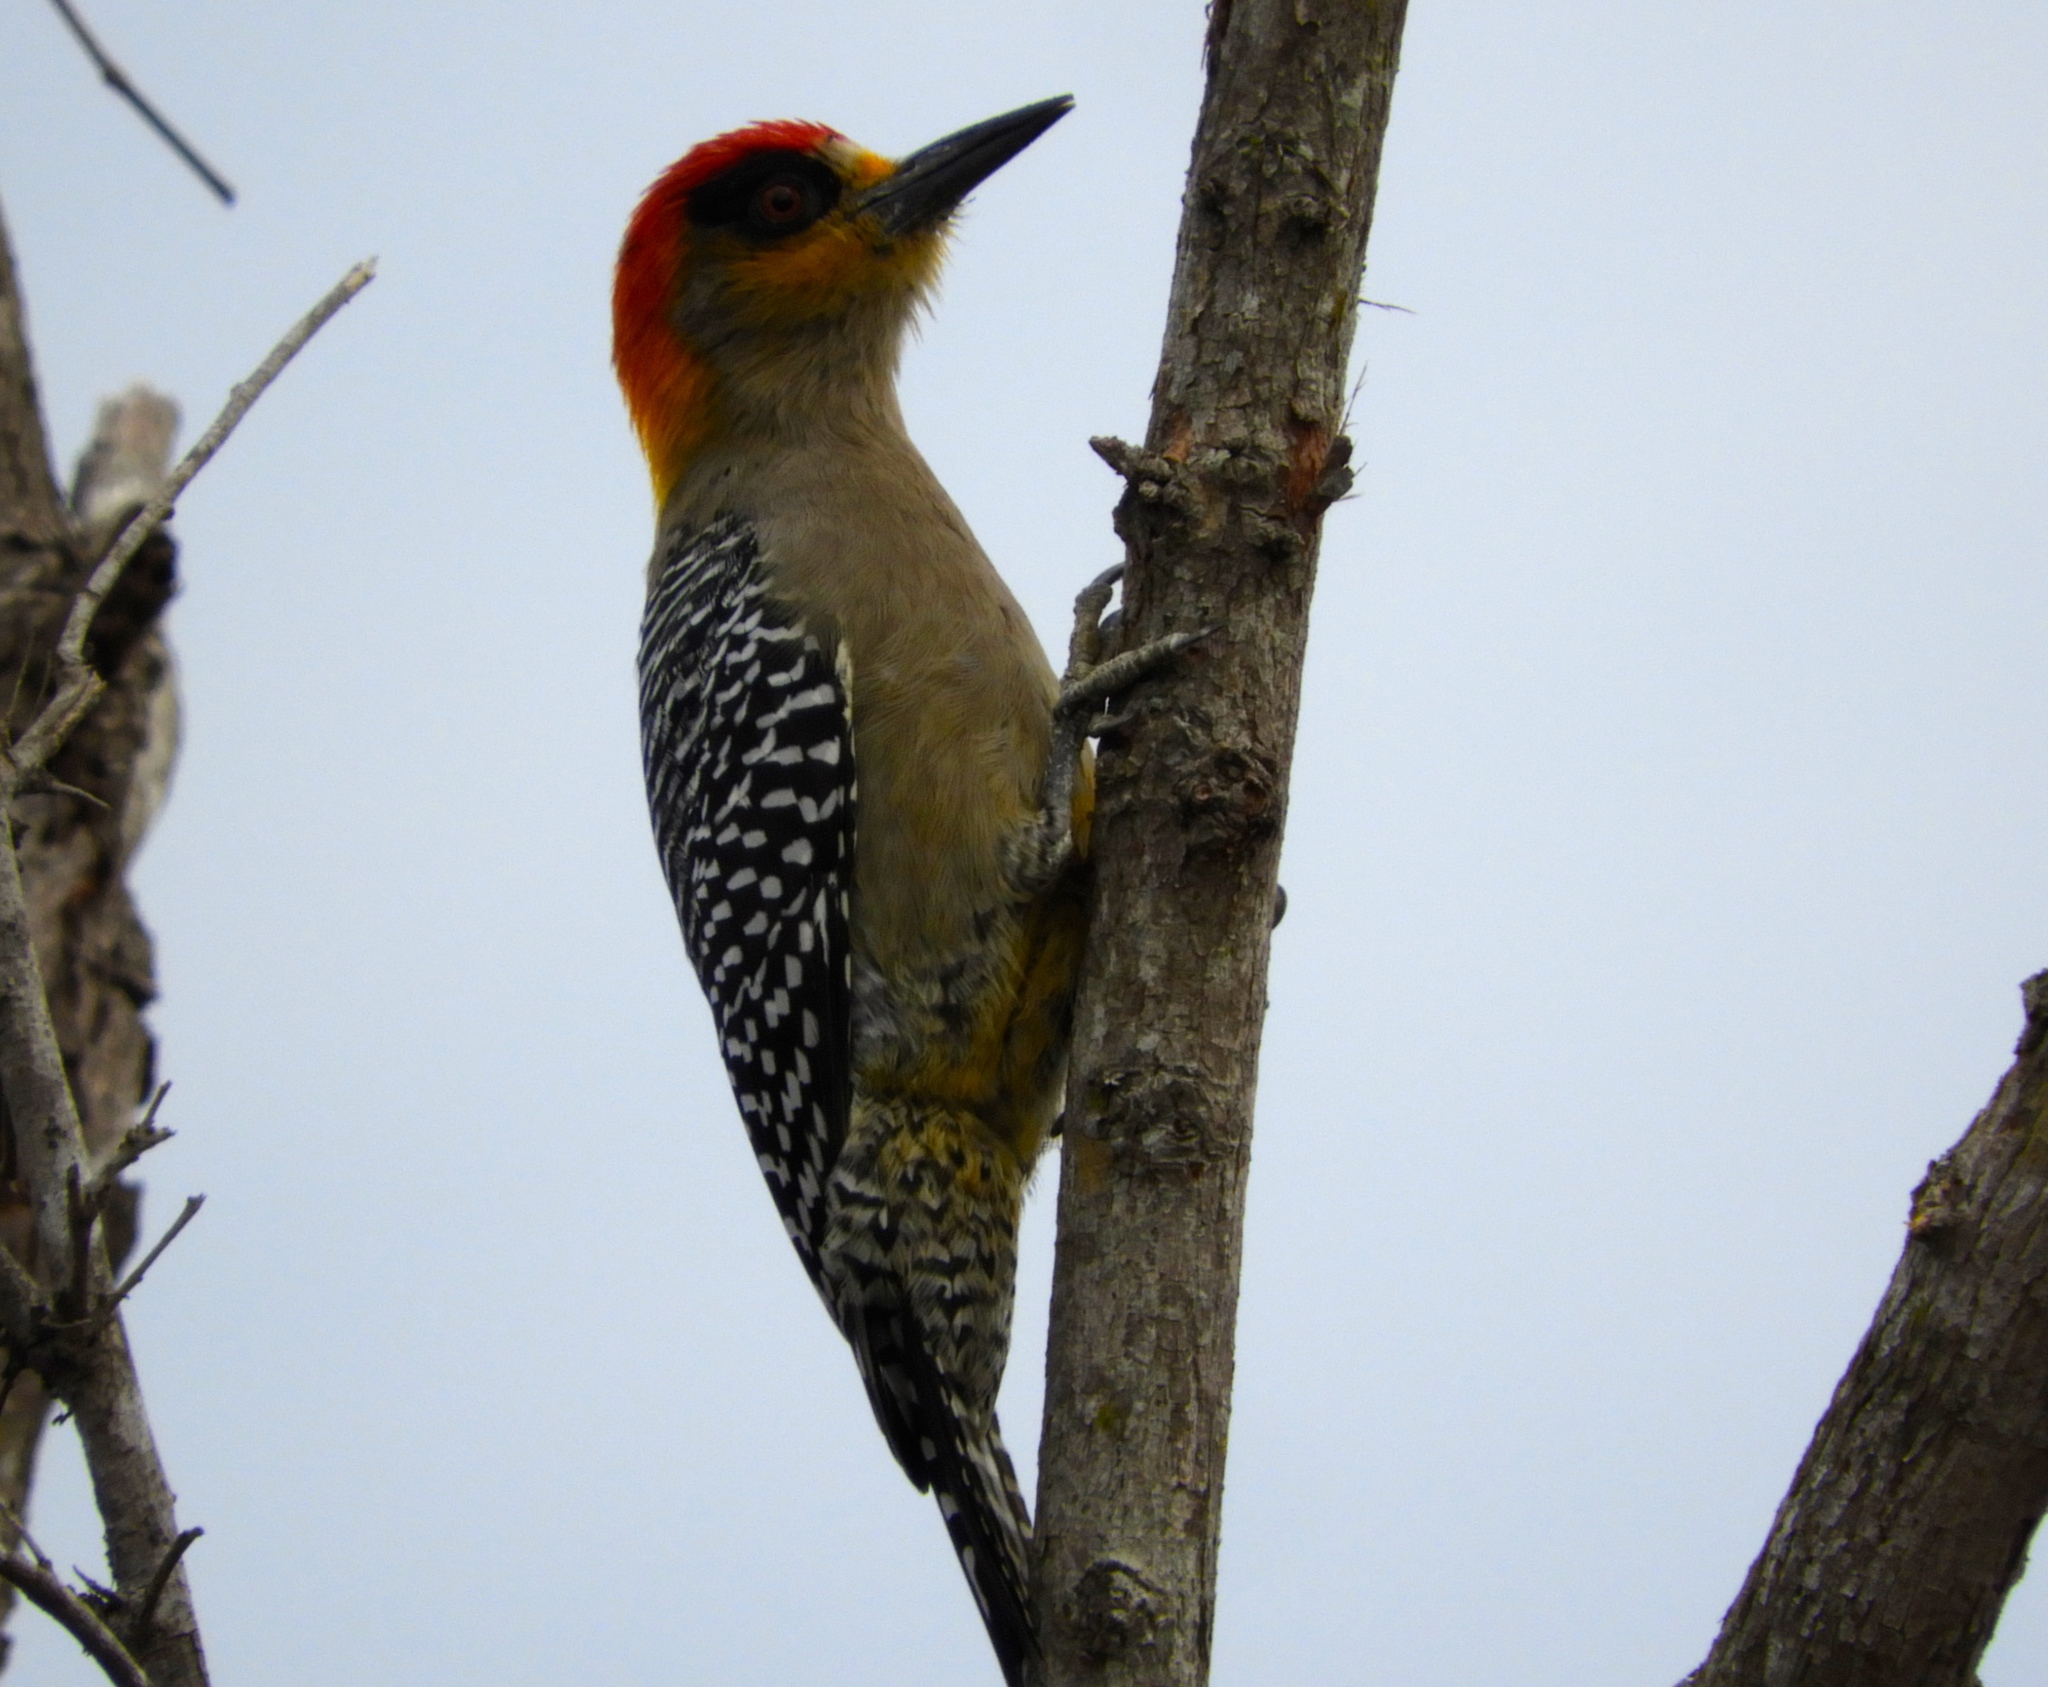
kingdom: Animalia
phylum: Chordata
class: Aves
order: Piciformes
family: Picidae
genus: Melanerpes
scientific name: Melanerpes chrysogenys
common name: Golden-cheeked woodpecker
